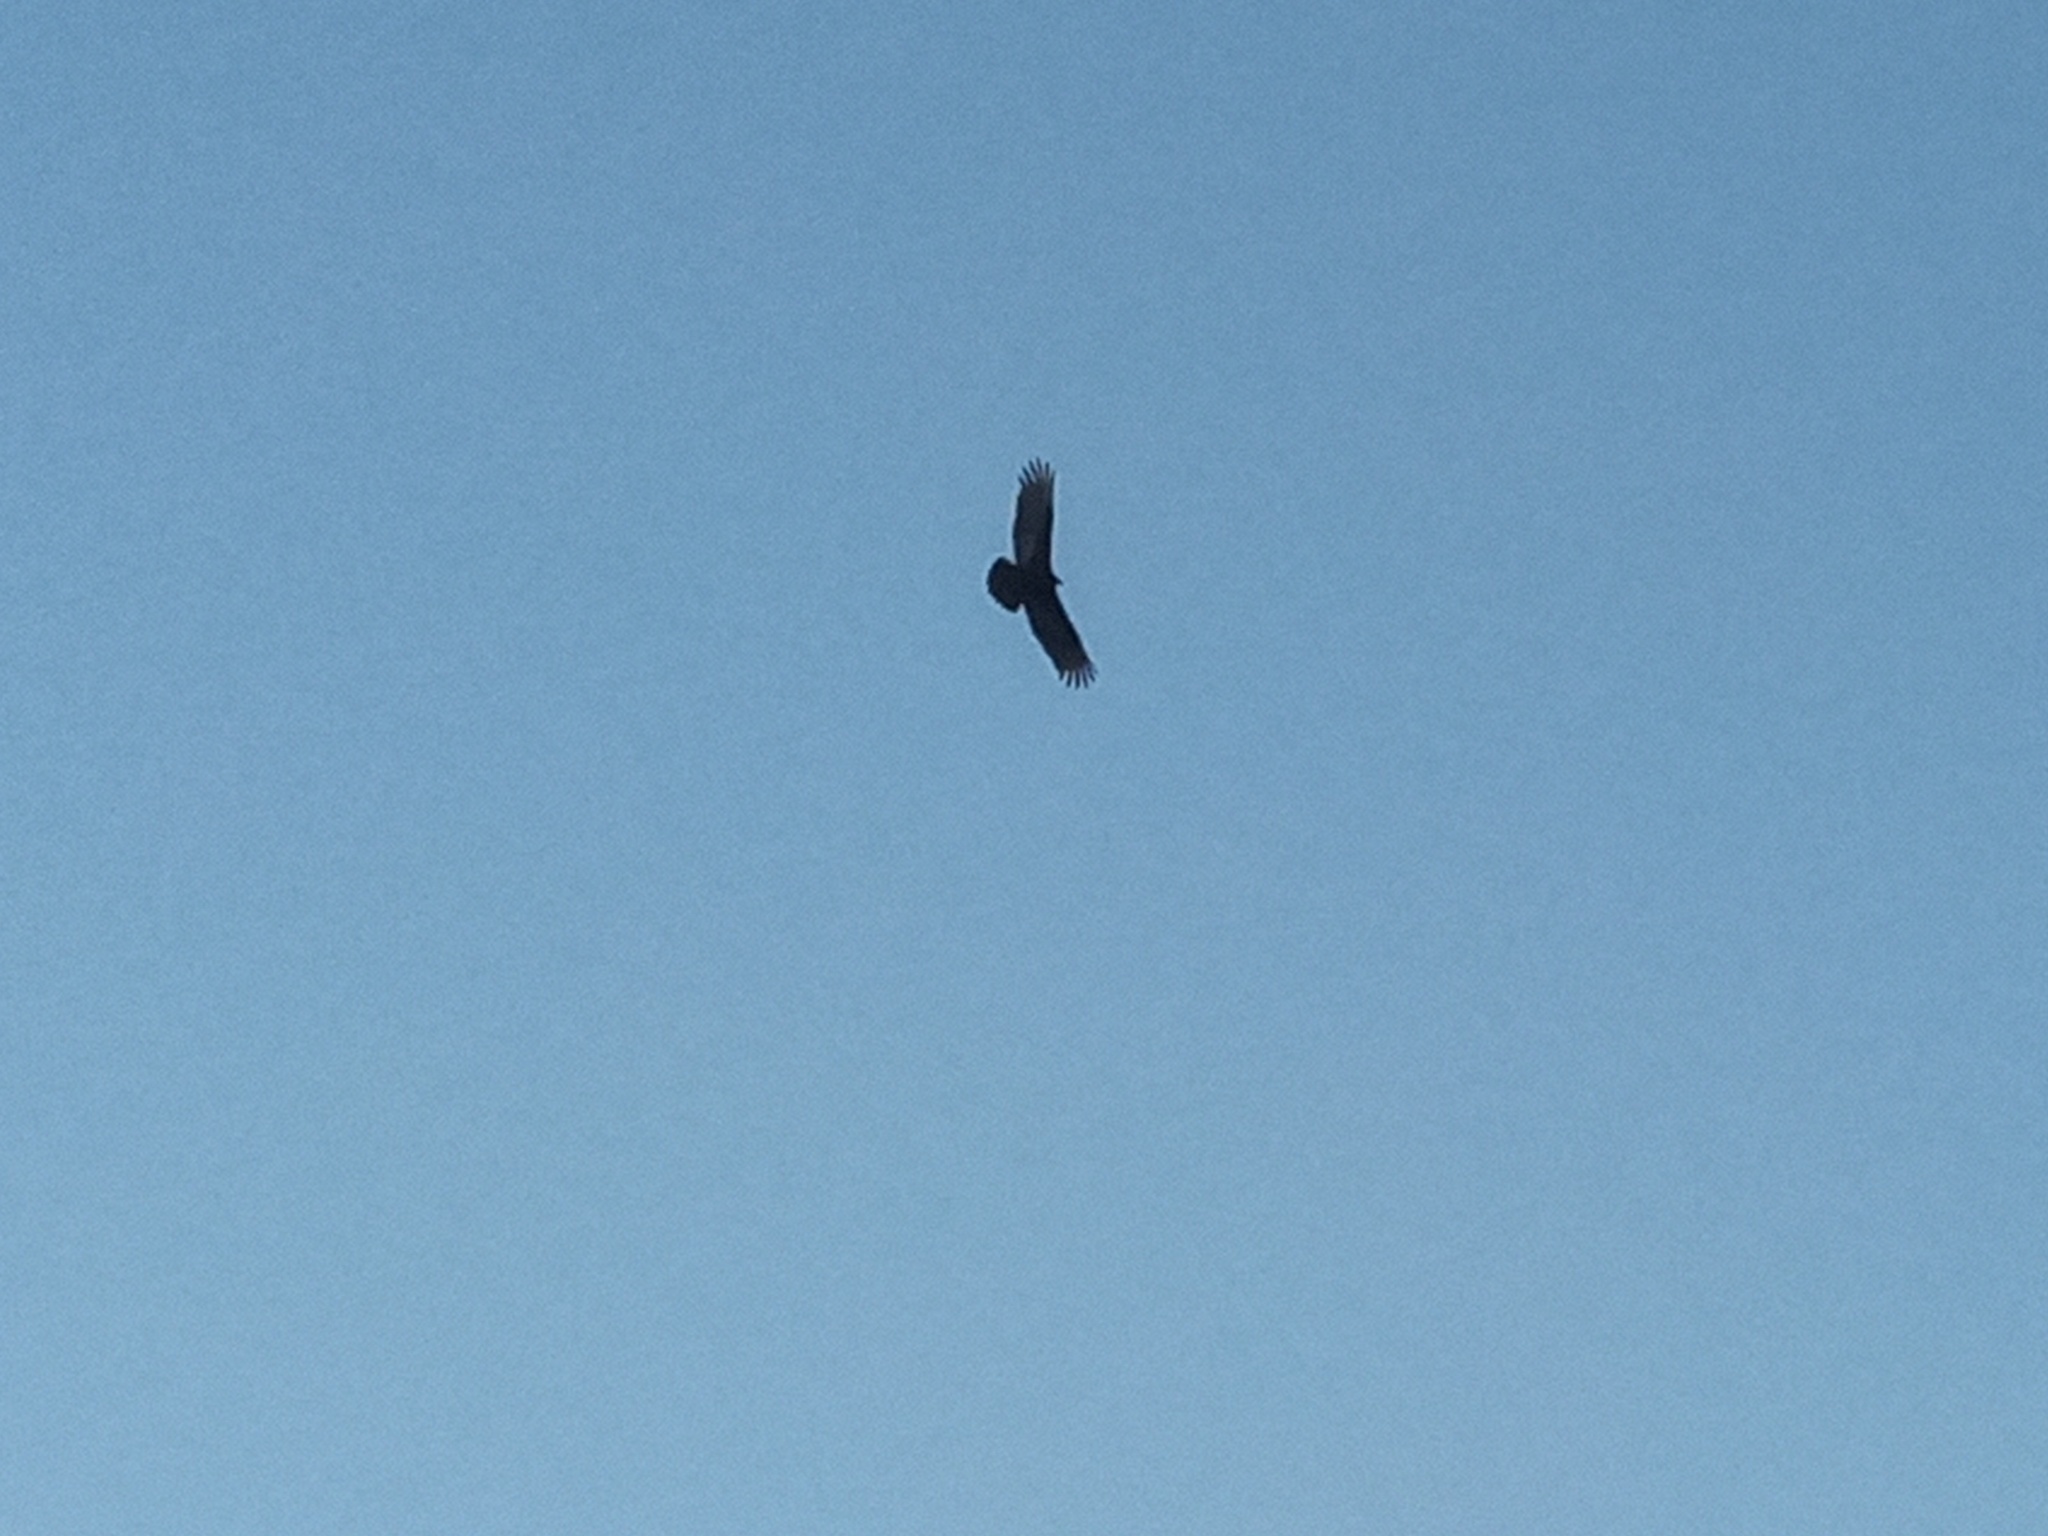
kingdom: Animalia
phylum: Chordata
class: Aves
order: Accipitriformes
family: Cathartidae
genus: Cathartes
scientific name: Cathartes aura
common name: Turkey vulture
